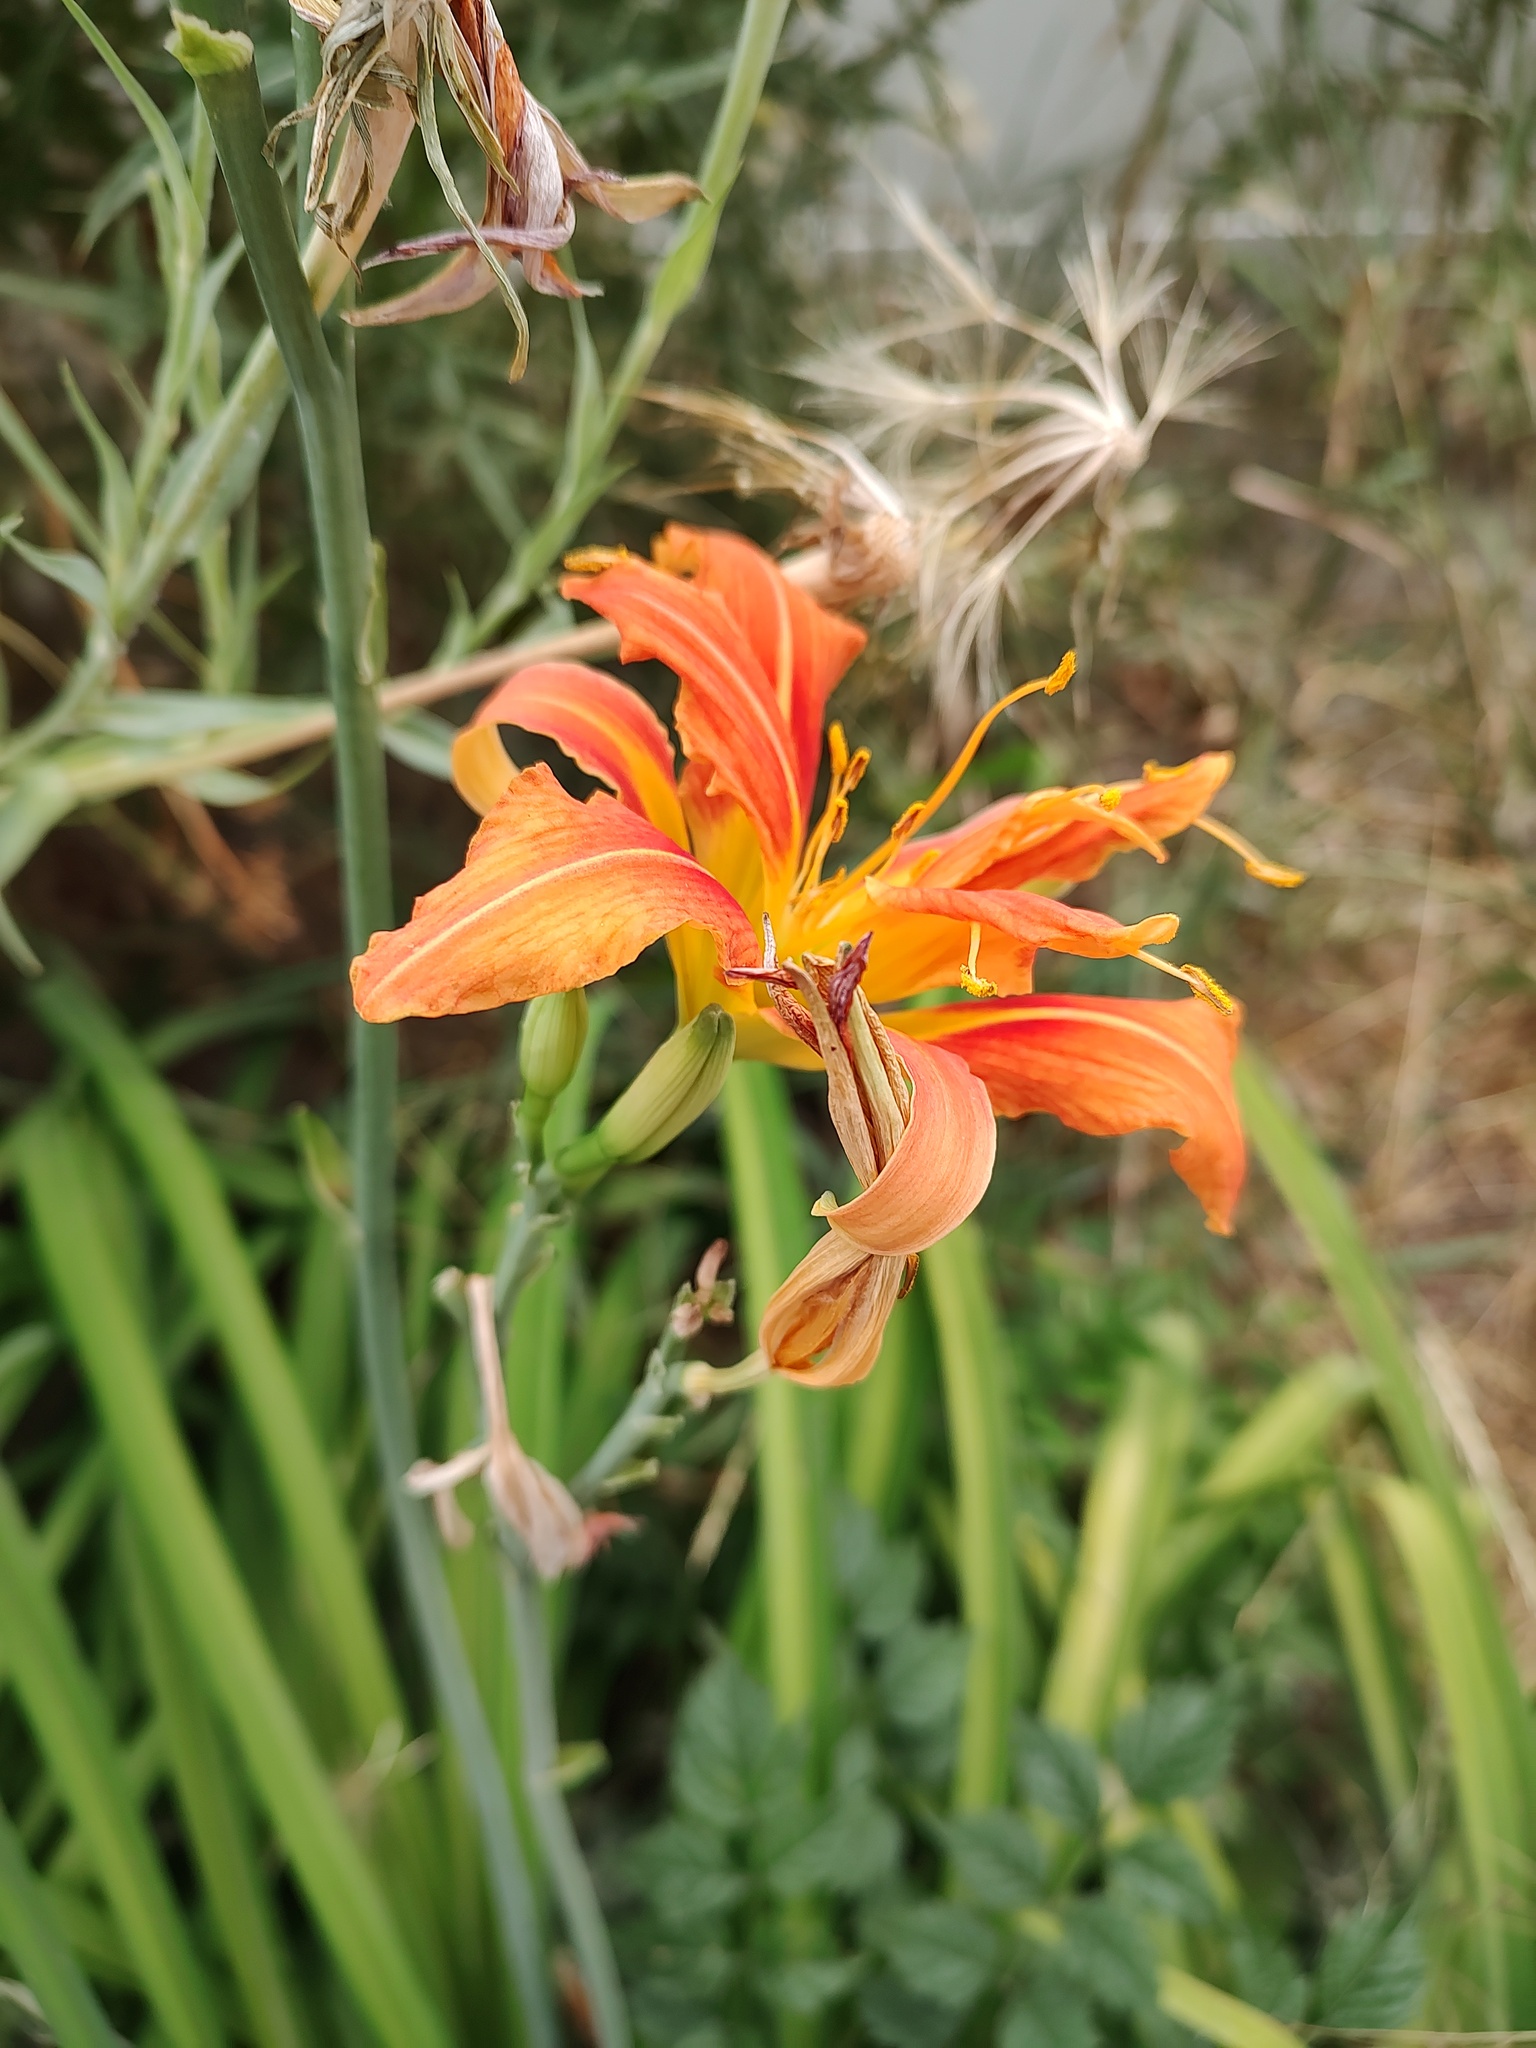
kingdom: Plantae
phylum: Tracheophyta
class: Liliopsida
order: Asparagales
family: Asphodelaceae
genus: Hemerocallis
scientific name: Hemerocallis fulva
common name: Orange day-lily
